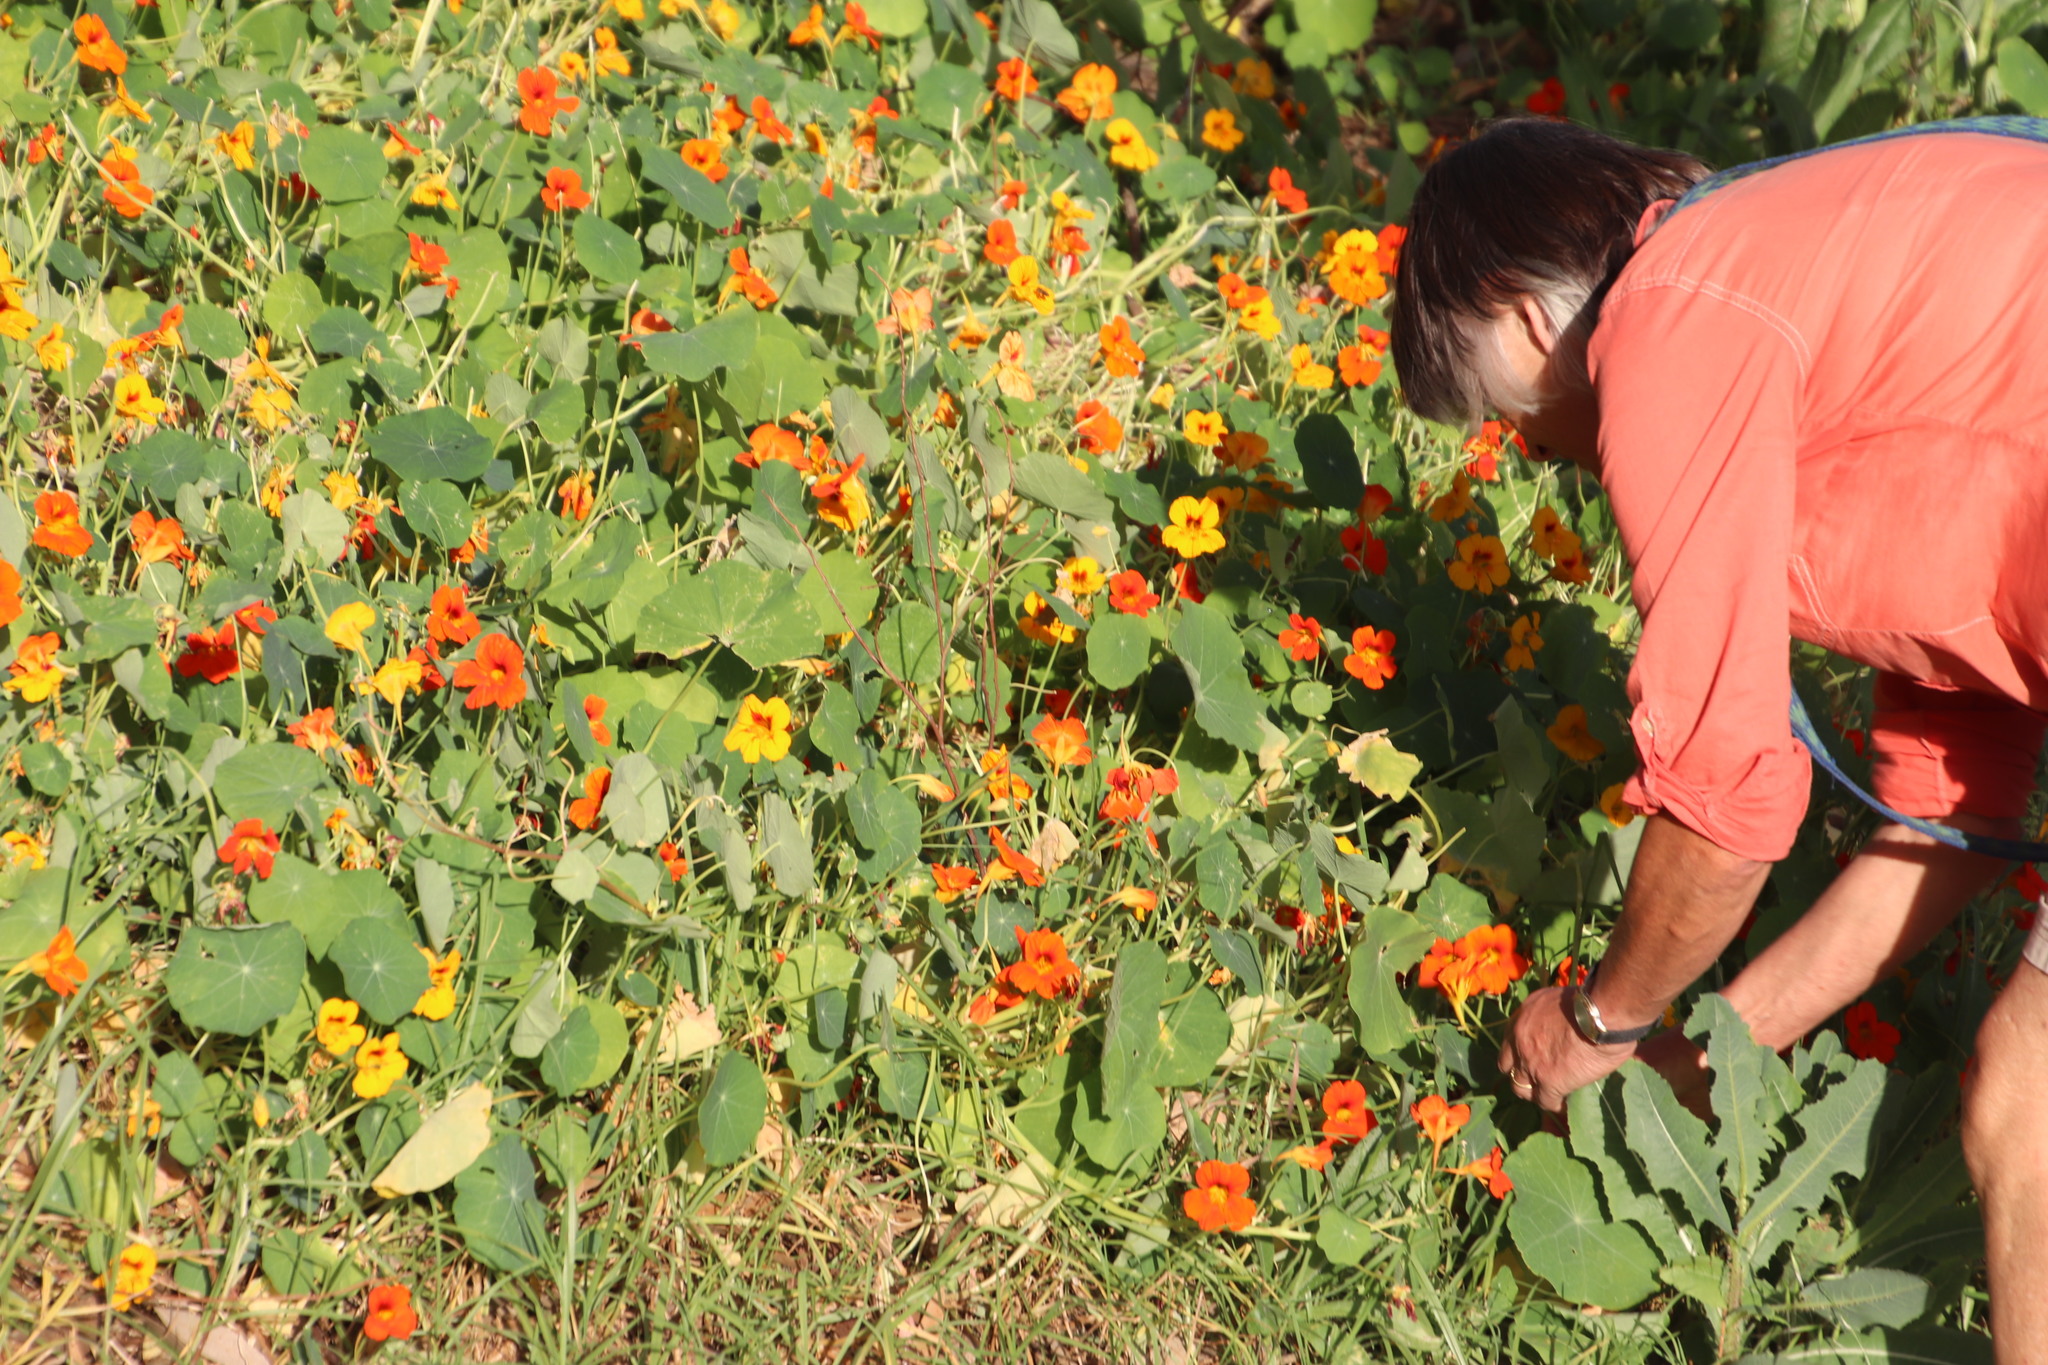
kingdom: Plantae
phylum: Tracheophyta
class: Magnoliopsida
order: Brassicales
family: Tropaeolaceae
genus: Tropaeolum
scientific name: Tropaeolum majus
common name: Nasturtium
